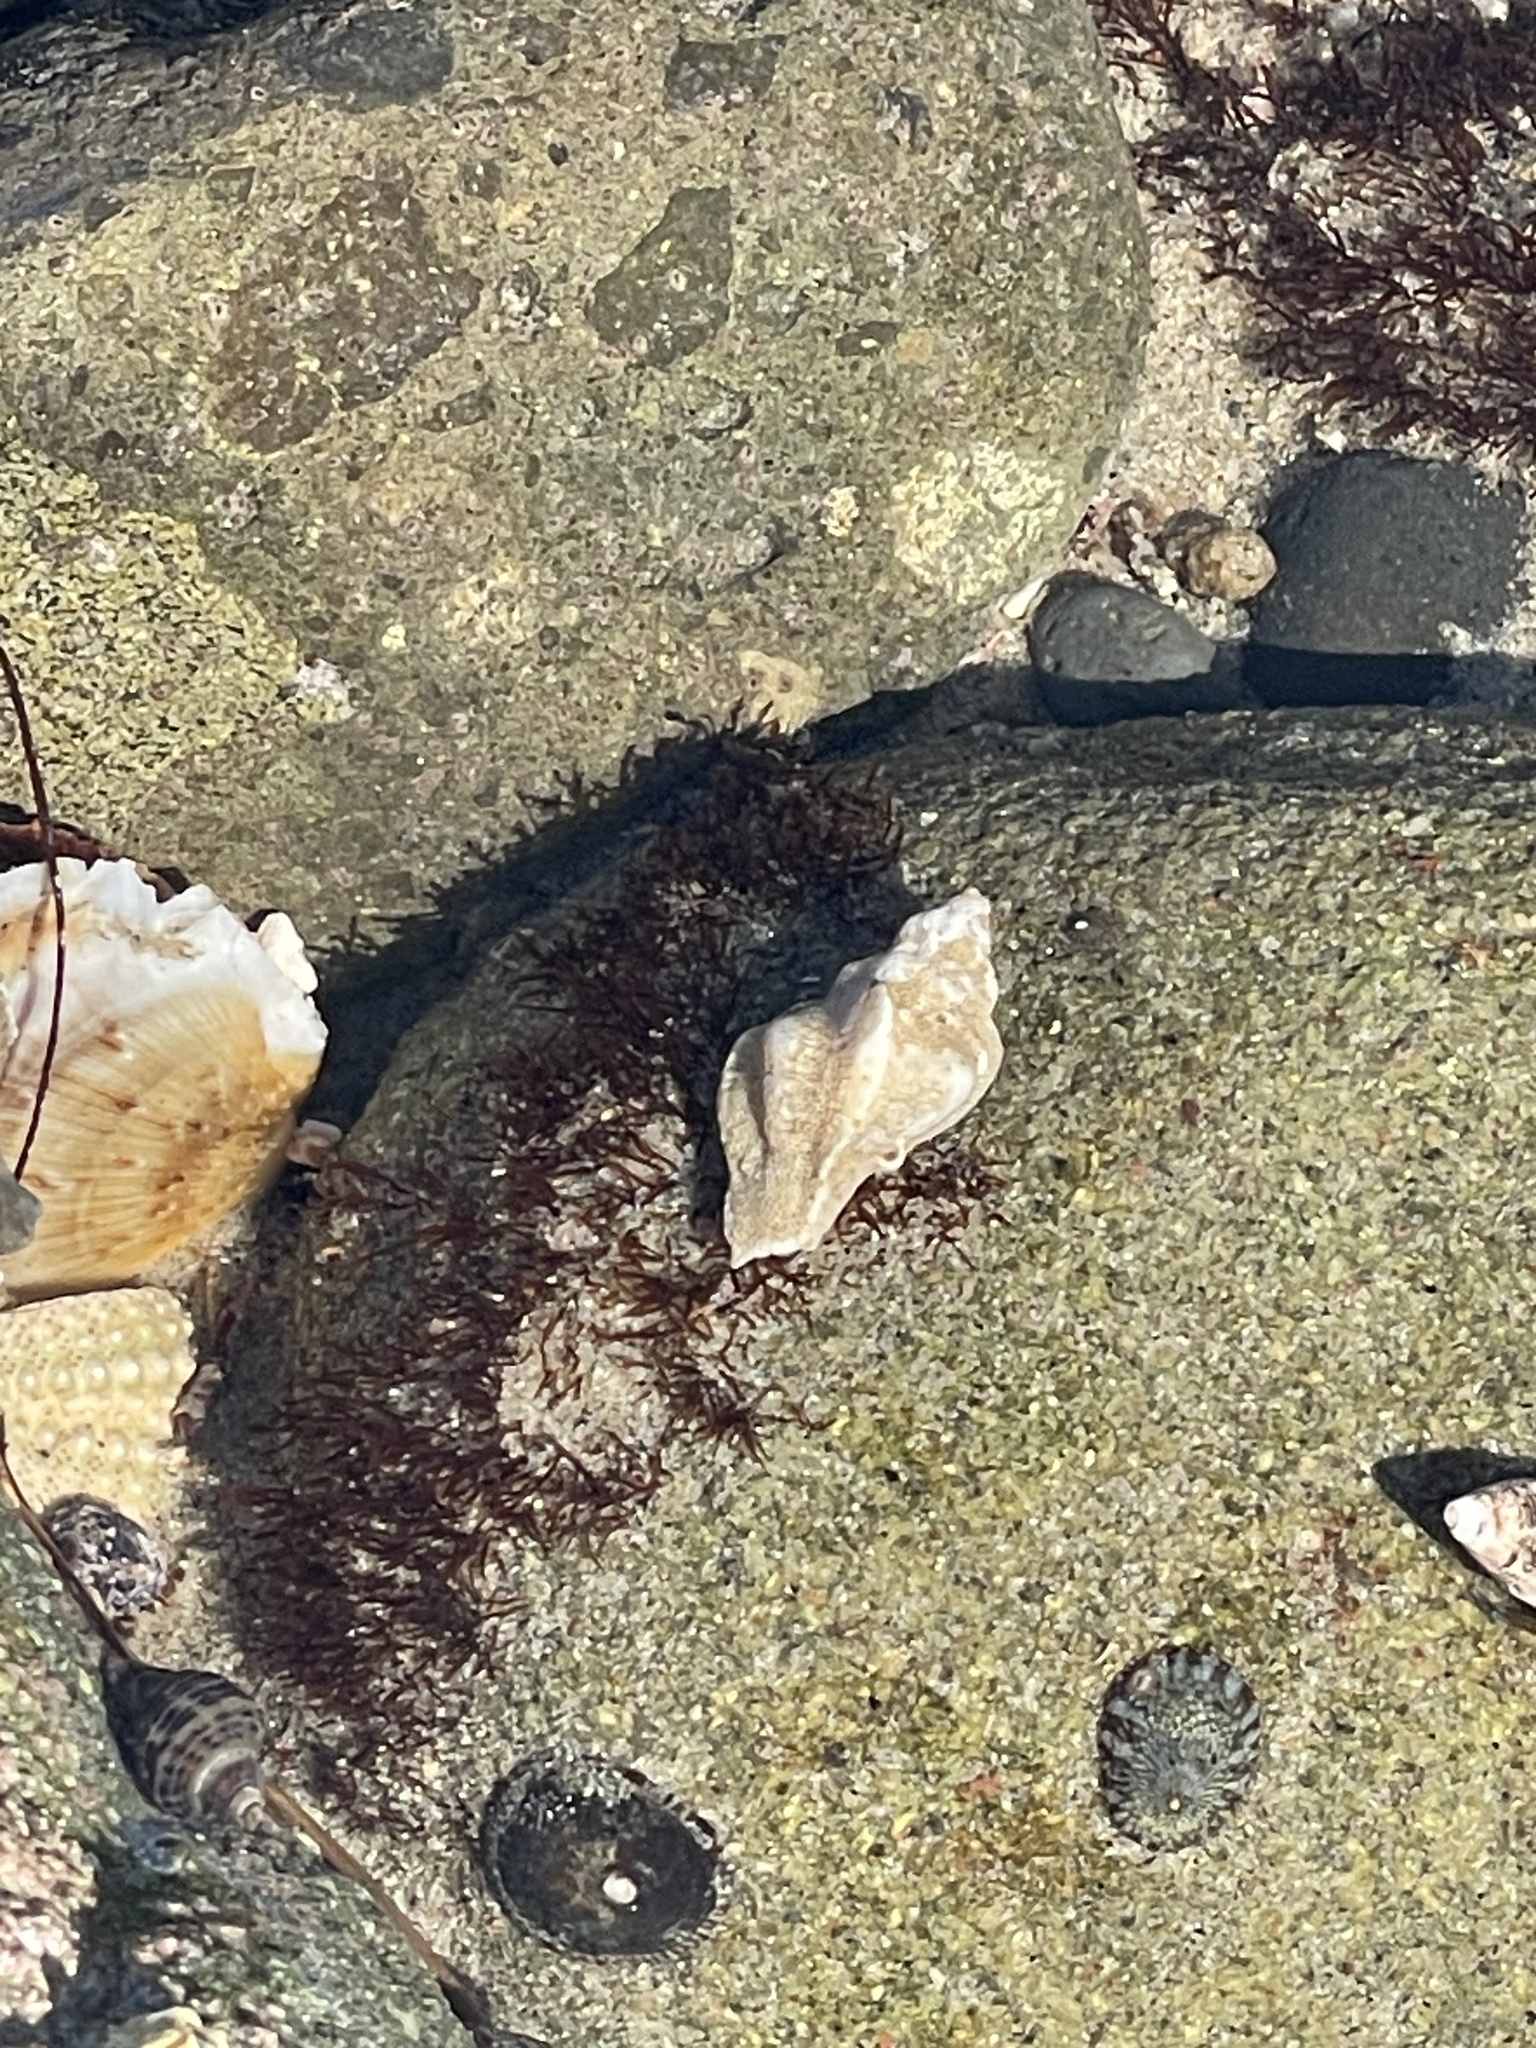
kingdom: Animalia
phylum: Mollusca
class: Gastropoda
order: Neogastropoda
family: Muricidae
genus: Pteropurpura
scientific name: Pteropurpura festiva
